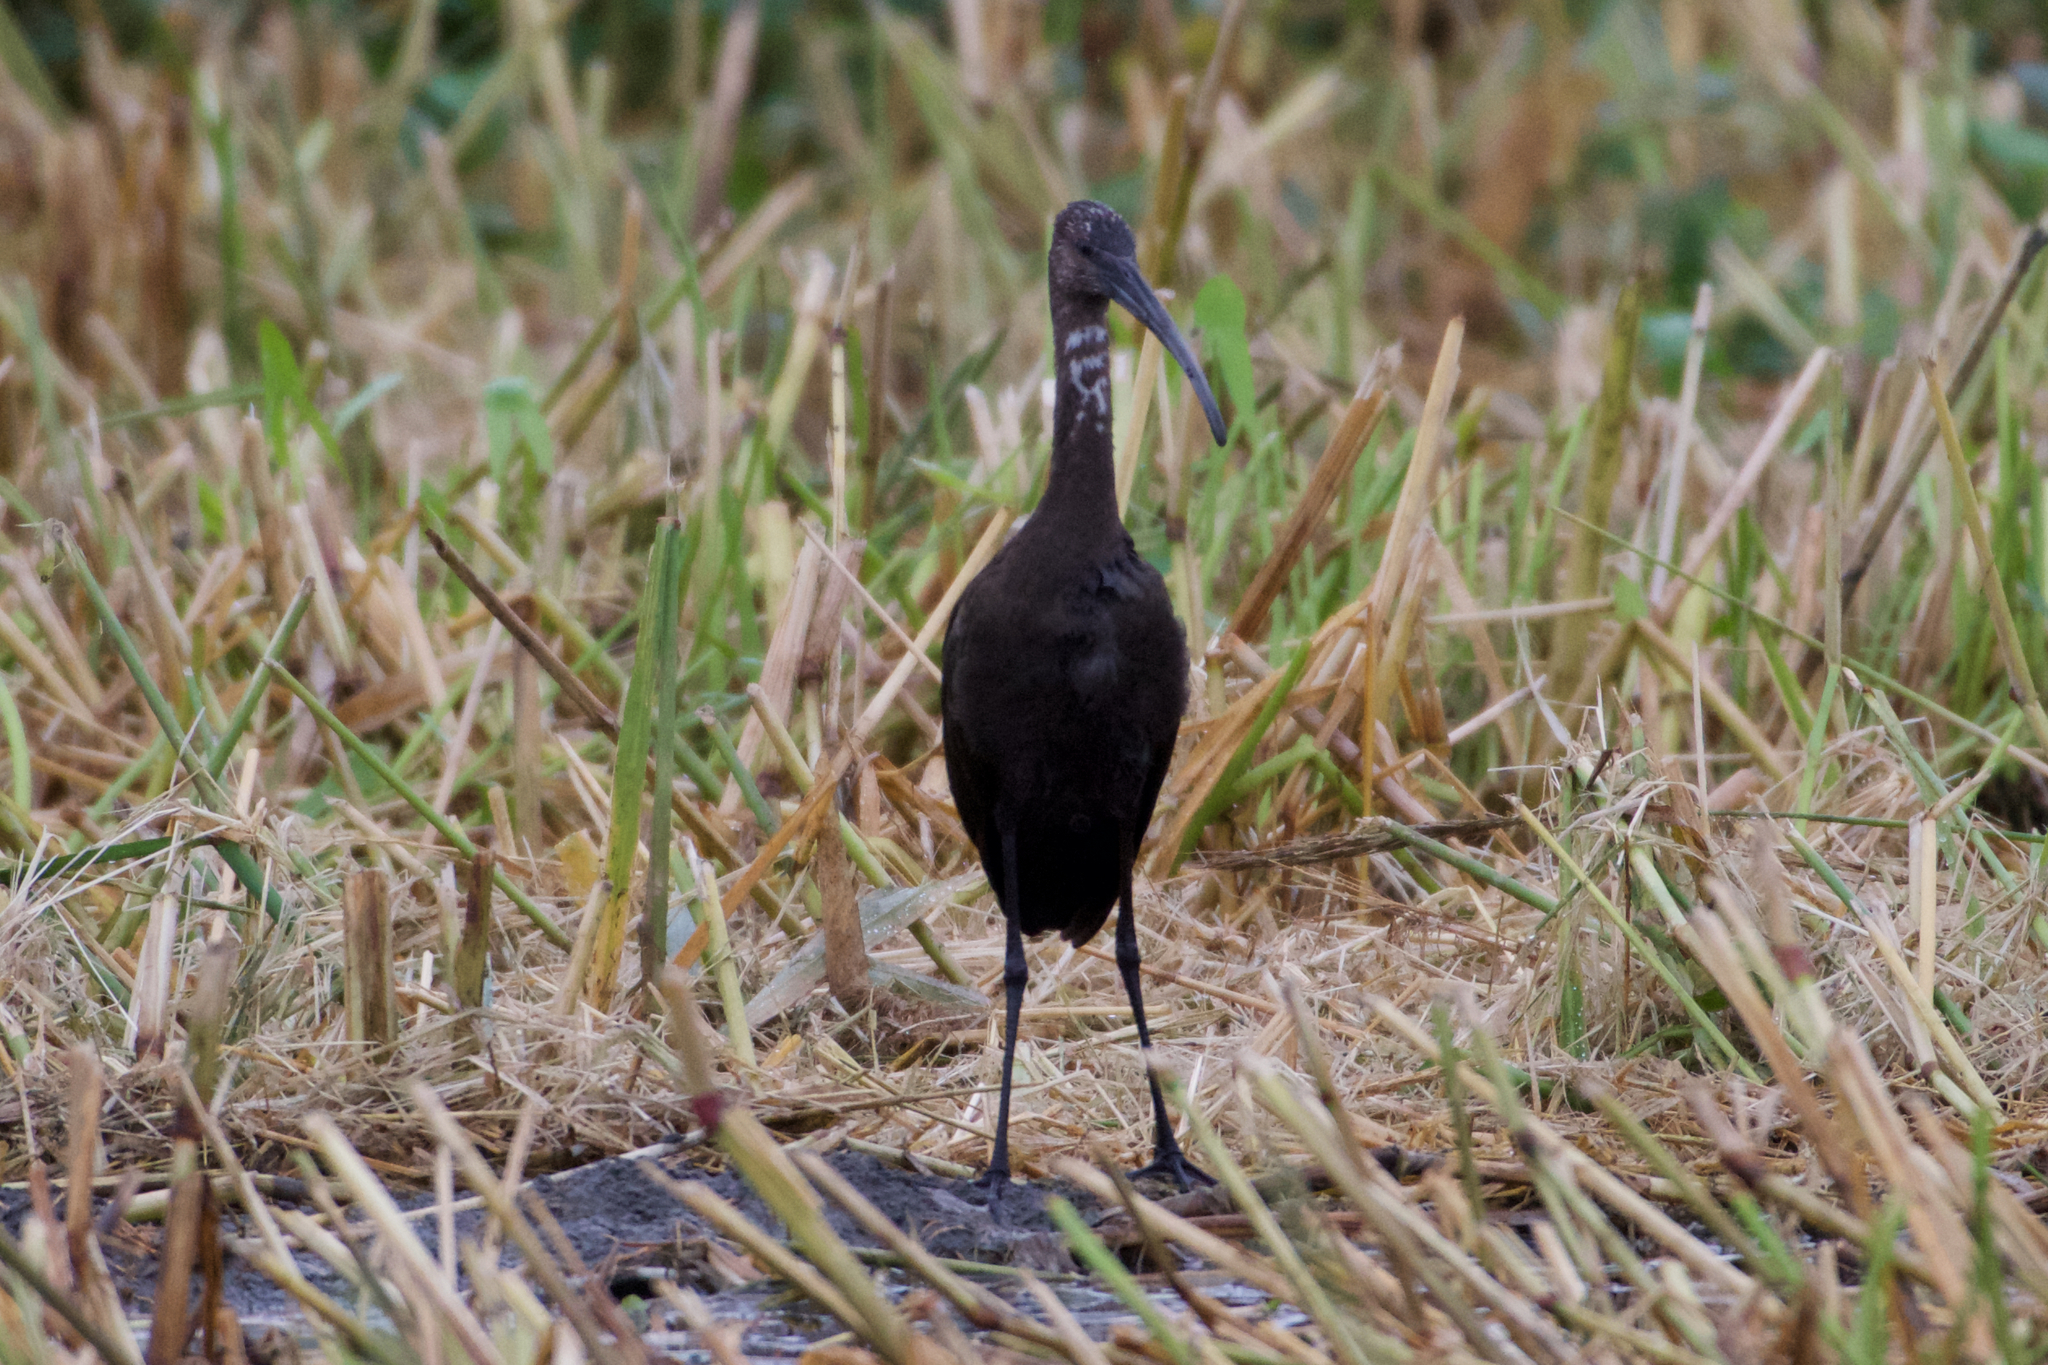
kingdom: Animalia
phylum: Chordata
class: Aves
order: Pelecaniformes
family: Threskiornithidae
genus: Plegadis
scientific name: Plegadis chihi
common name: White-faced ibis
